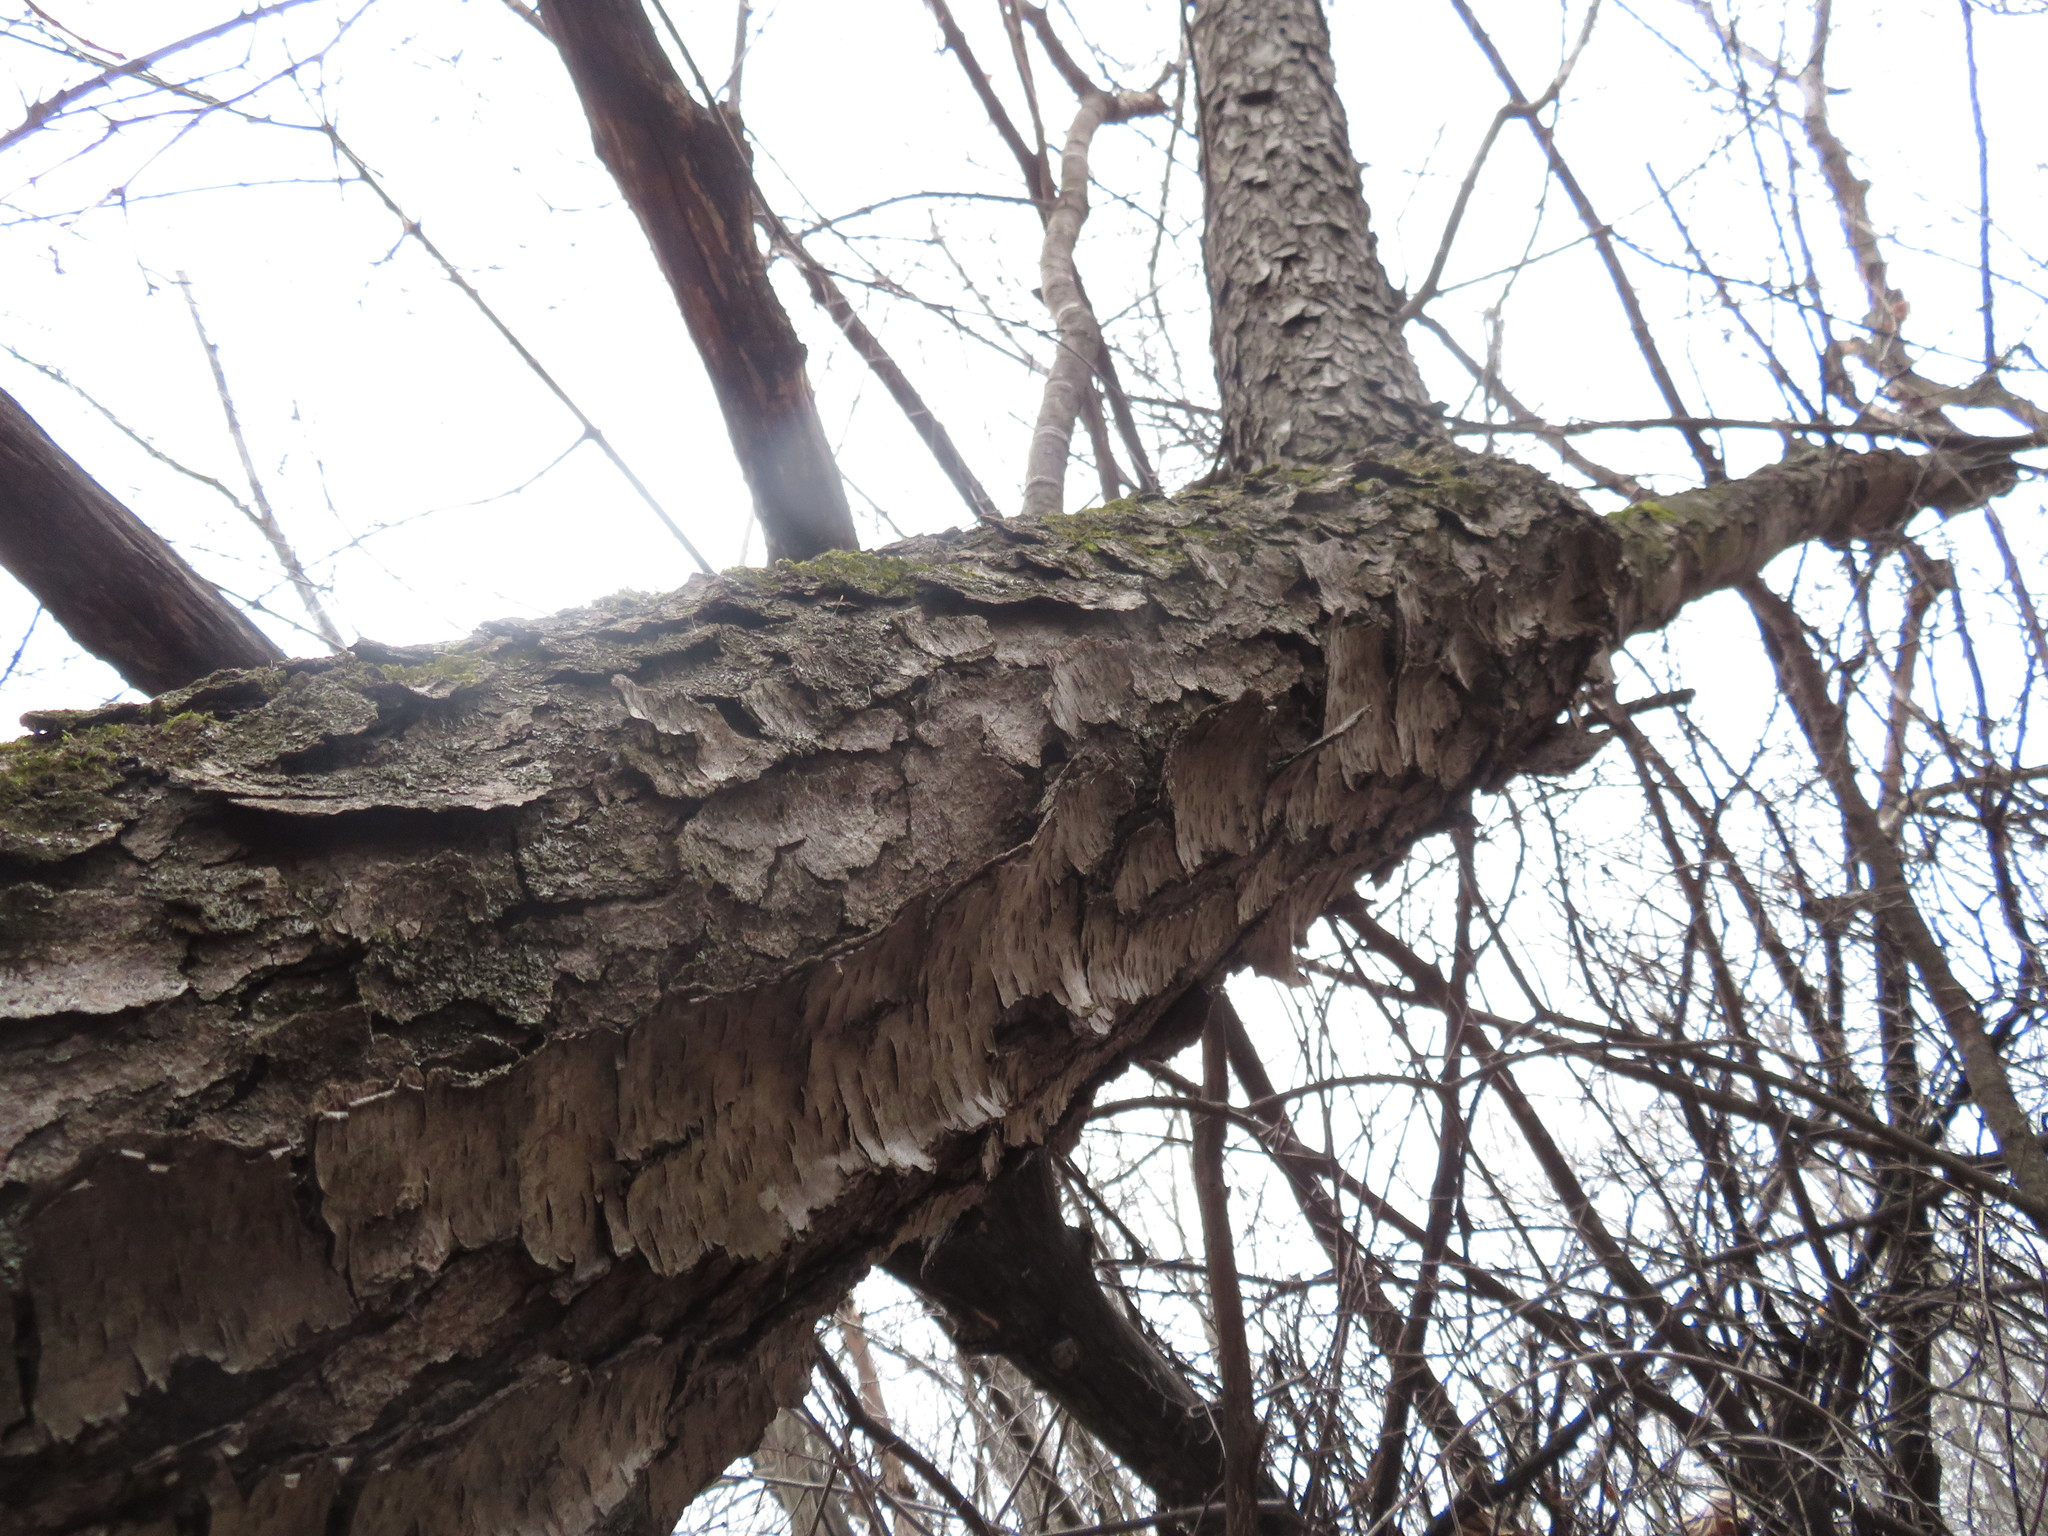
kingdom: Plantae
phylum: Tracheophyta
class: Magnoliopsida
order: Rosales
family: Rosaceae
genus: Prunus
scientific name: Prunus serotina
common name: Black cherry
